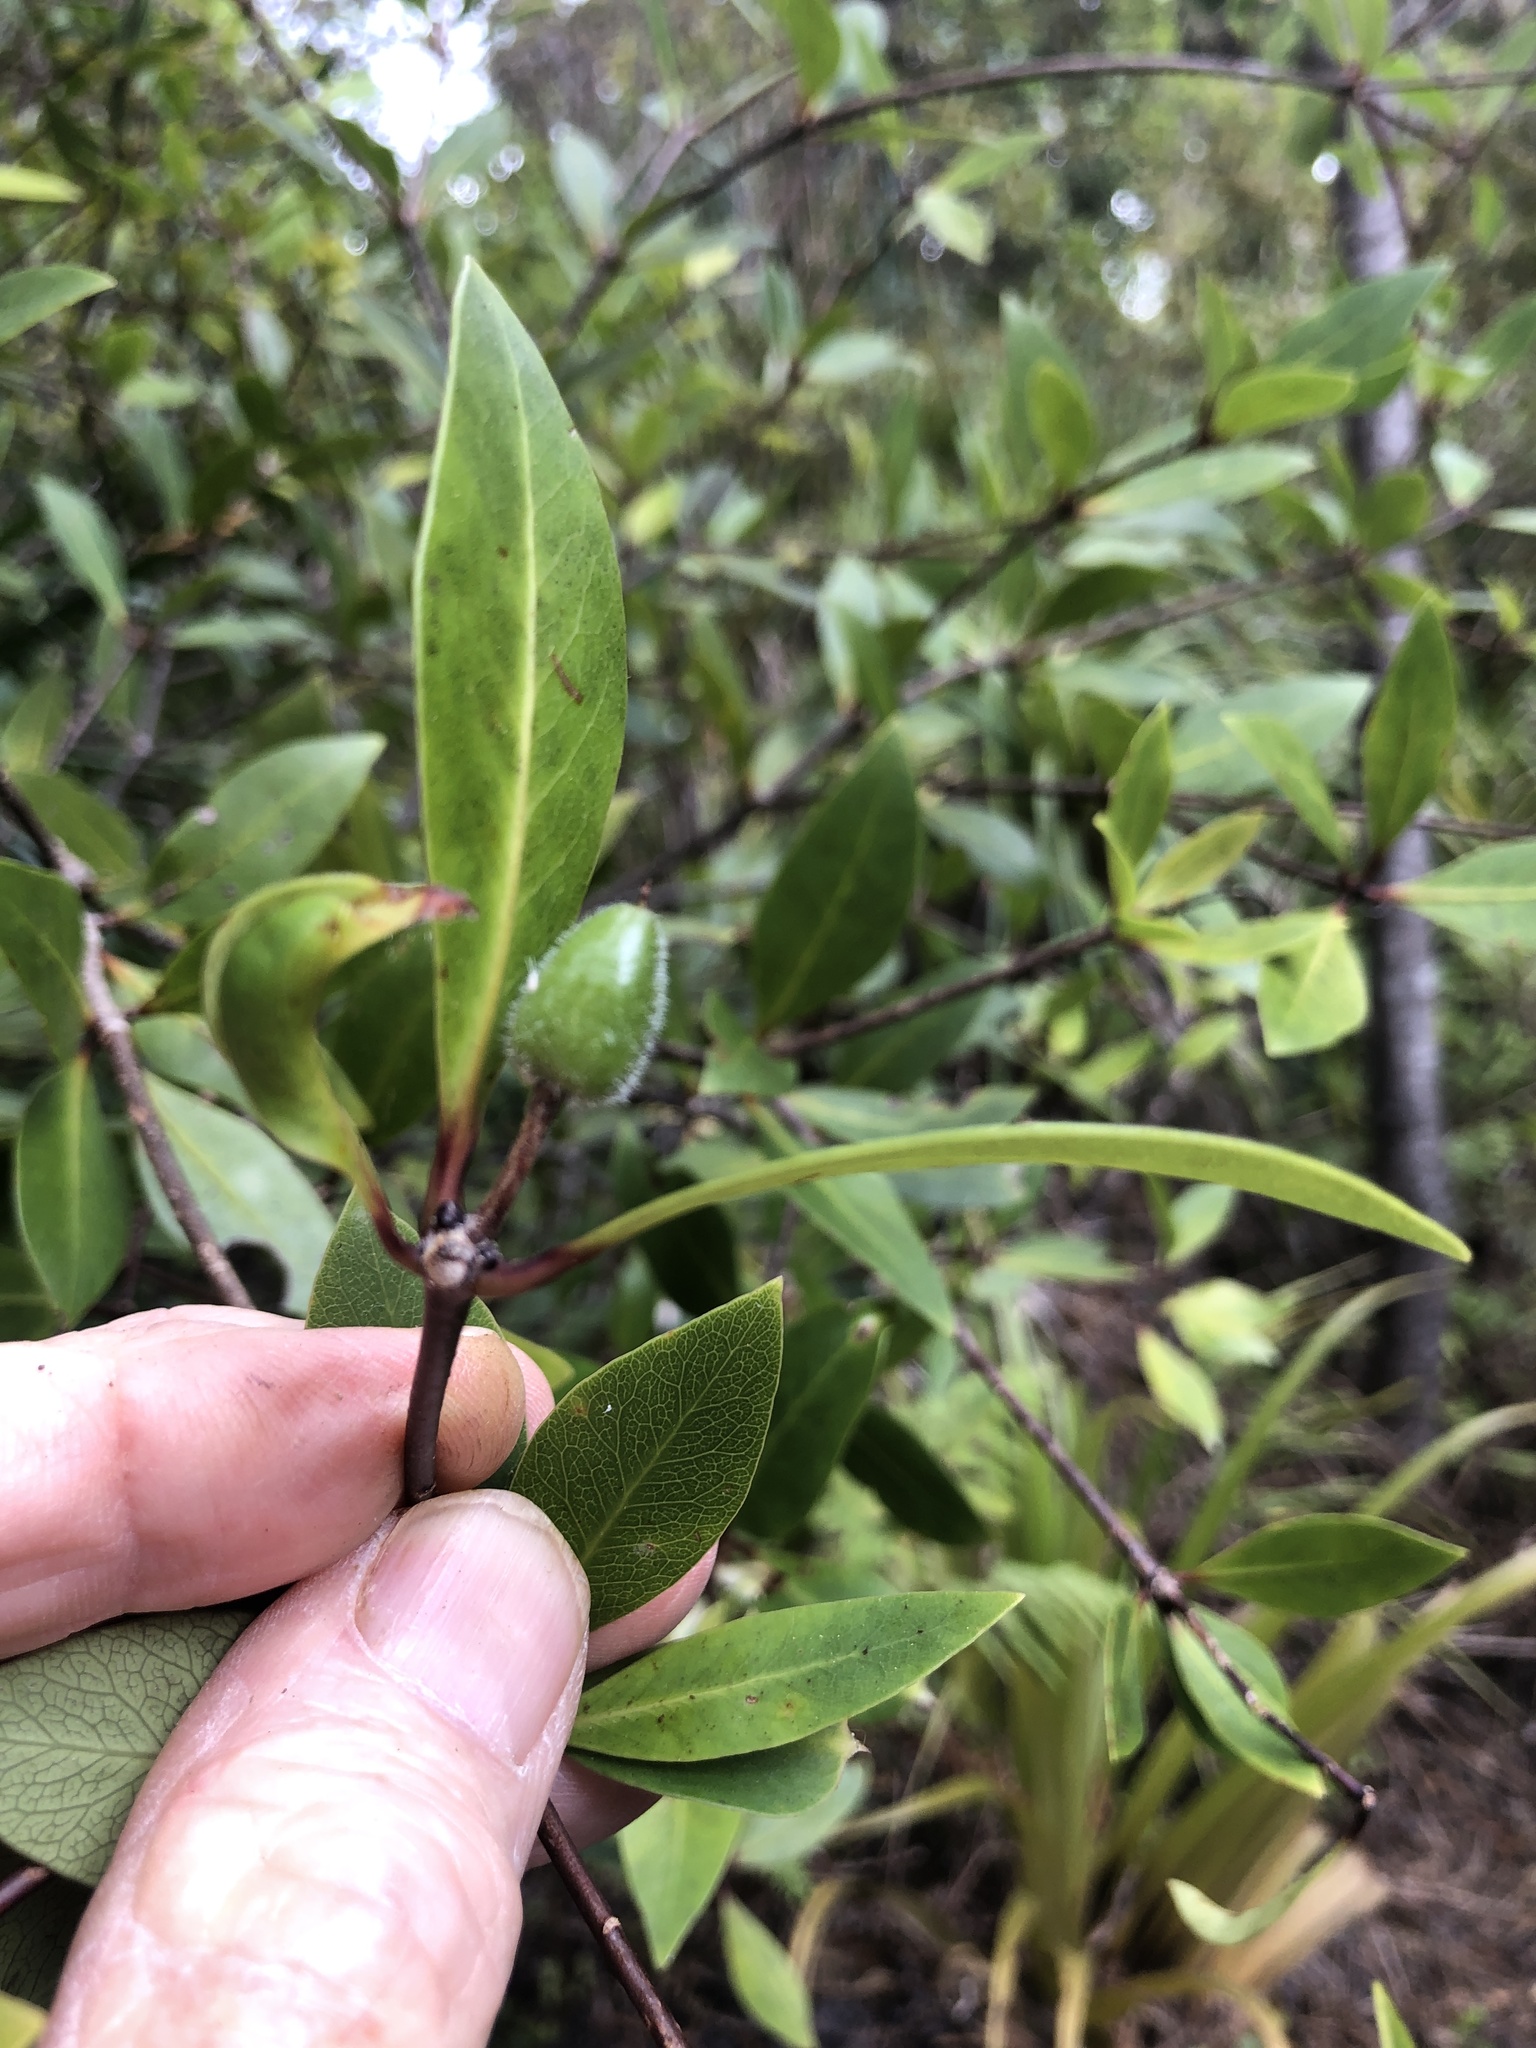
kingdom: Plantae
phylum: Tracheophyta
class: Magnoliopsida
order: Apiales
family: Pittosporaceae
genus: Pittosporum
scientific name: Pittosporum cornifolium
